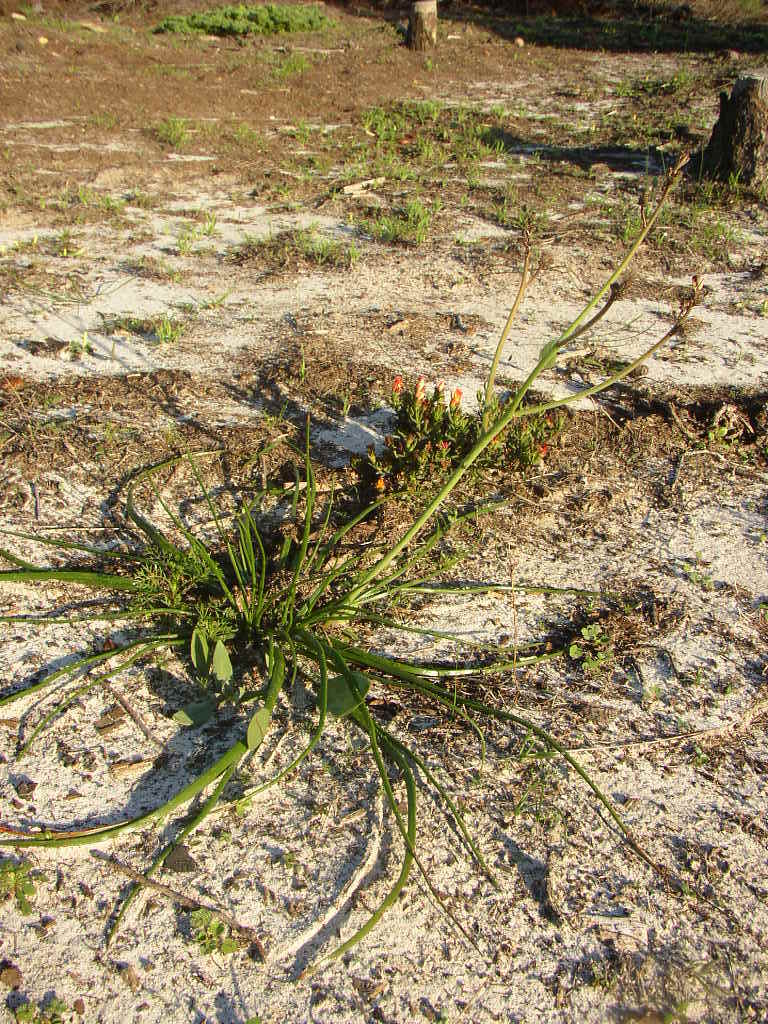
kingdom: Plantae
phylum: Tracheophyta
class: Liliopsida
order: Asparagales
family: Asphodelaceae
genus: Trachyandra
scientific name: Trachyandra divaricata
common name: Dune onionweed
